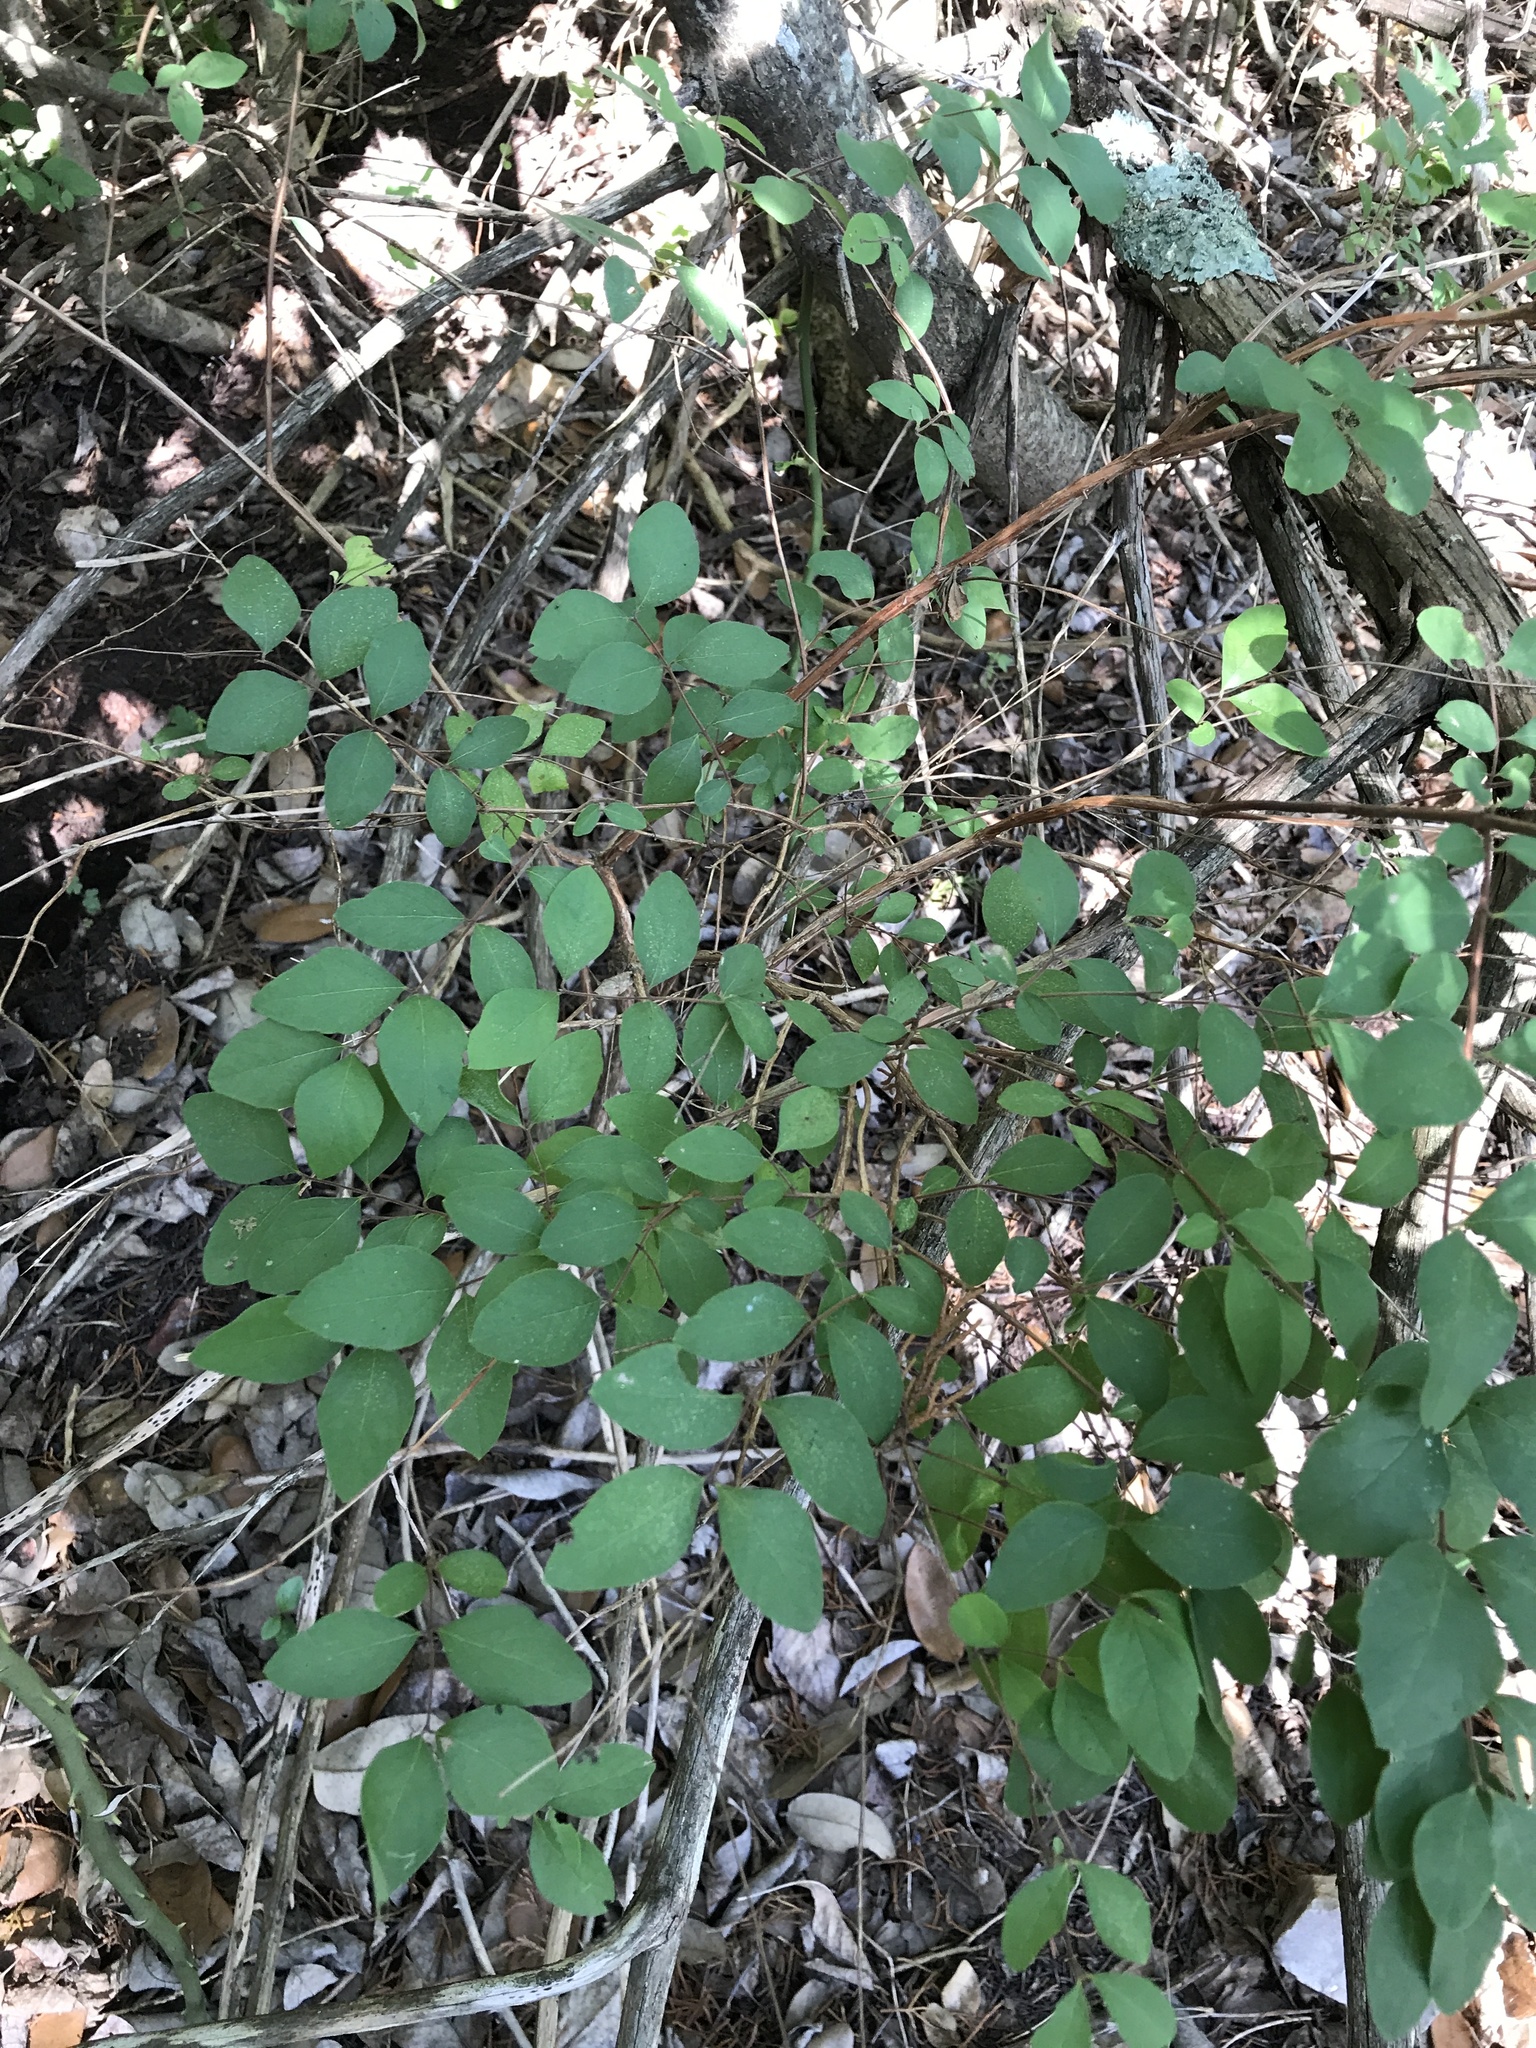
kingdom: Plantae
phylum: Tracheophyta
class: Magnoliopsida
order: Dipsacales
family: Caprifoliaceae
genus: Symphoricarpos
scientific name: Symphoricarpos orbiculatus
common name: Coralberry
